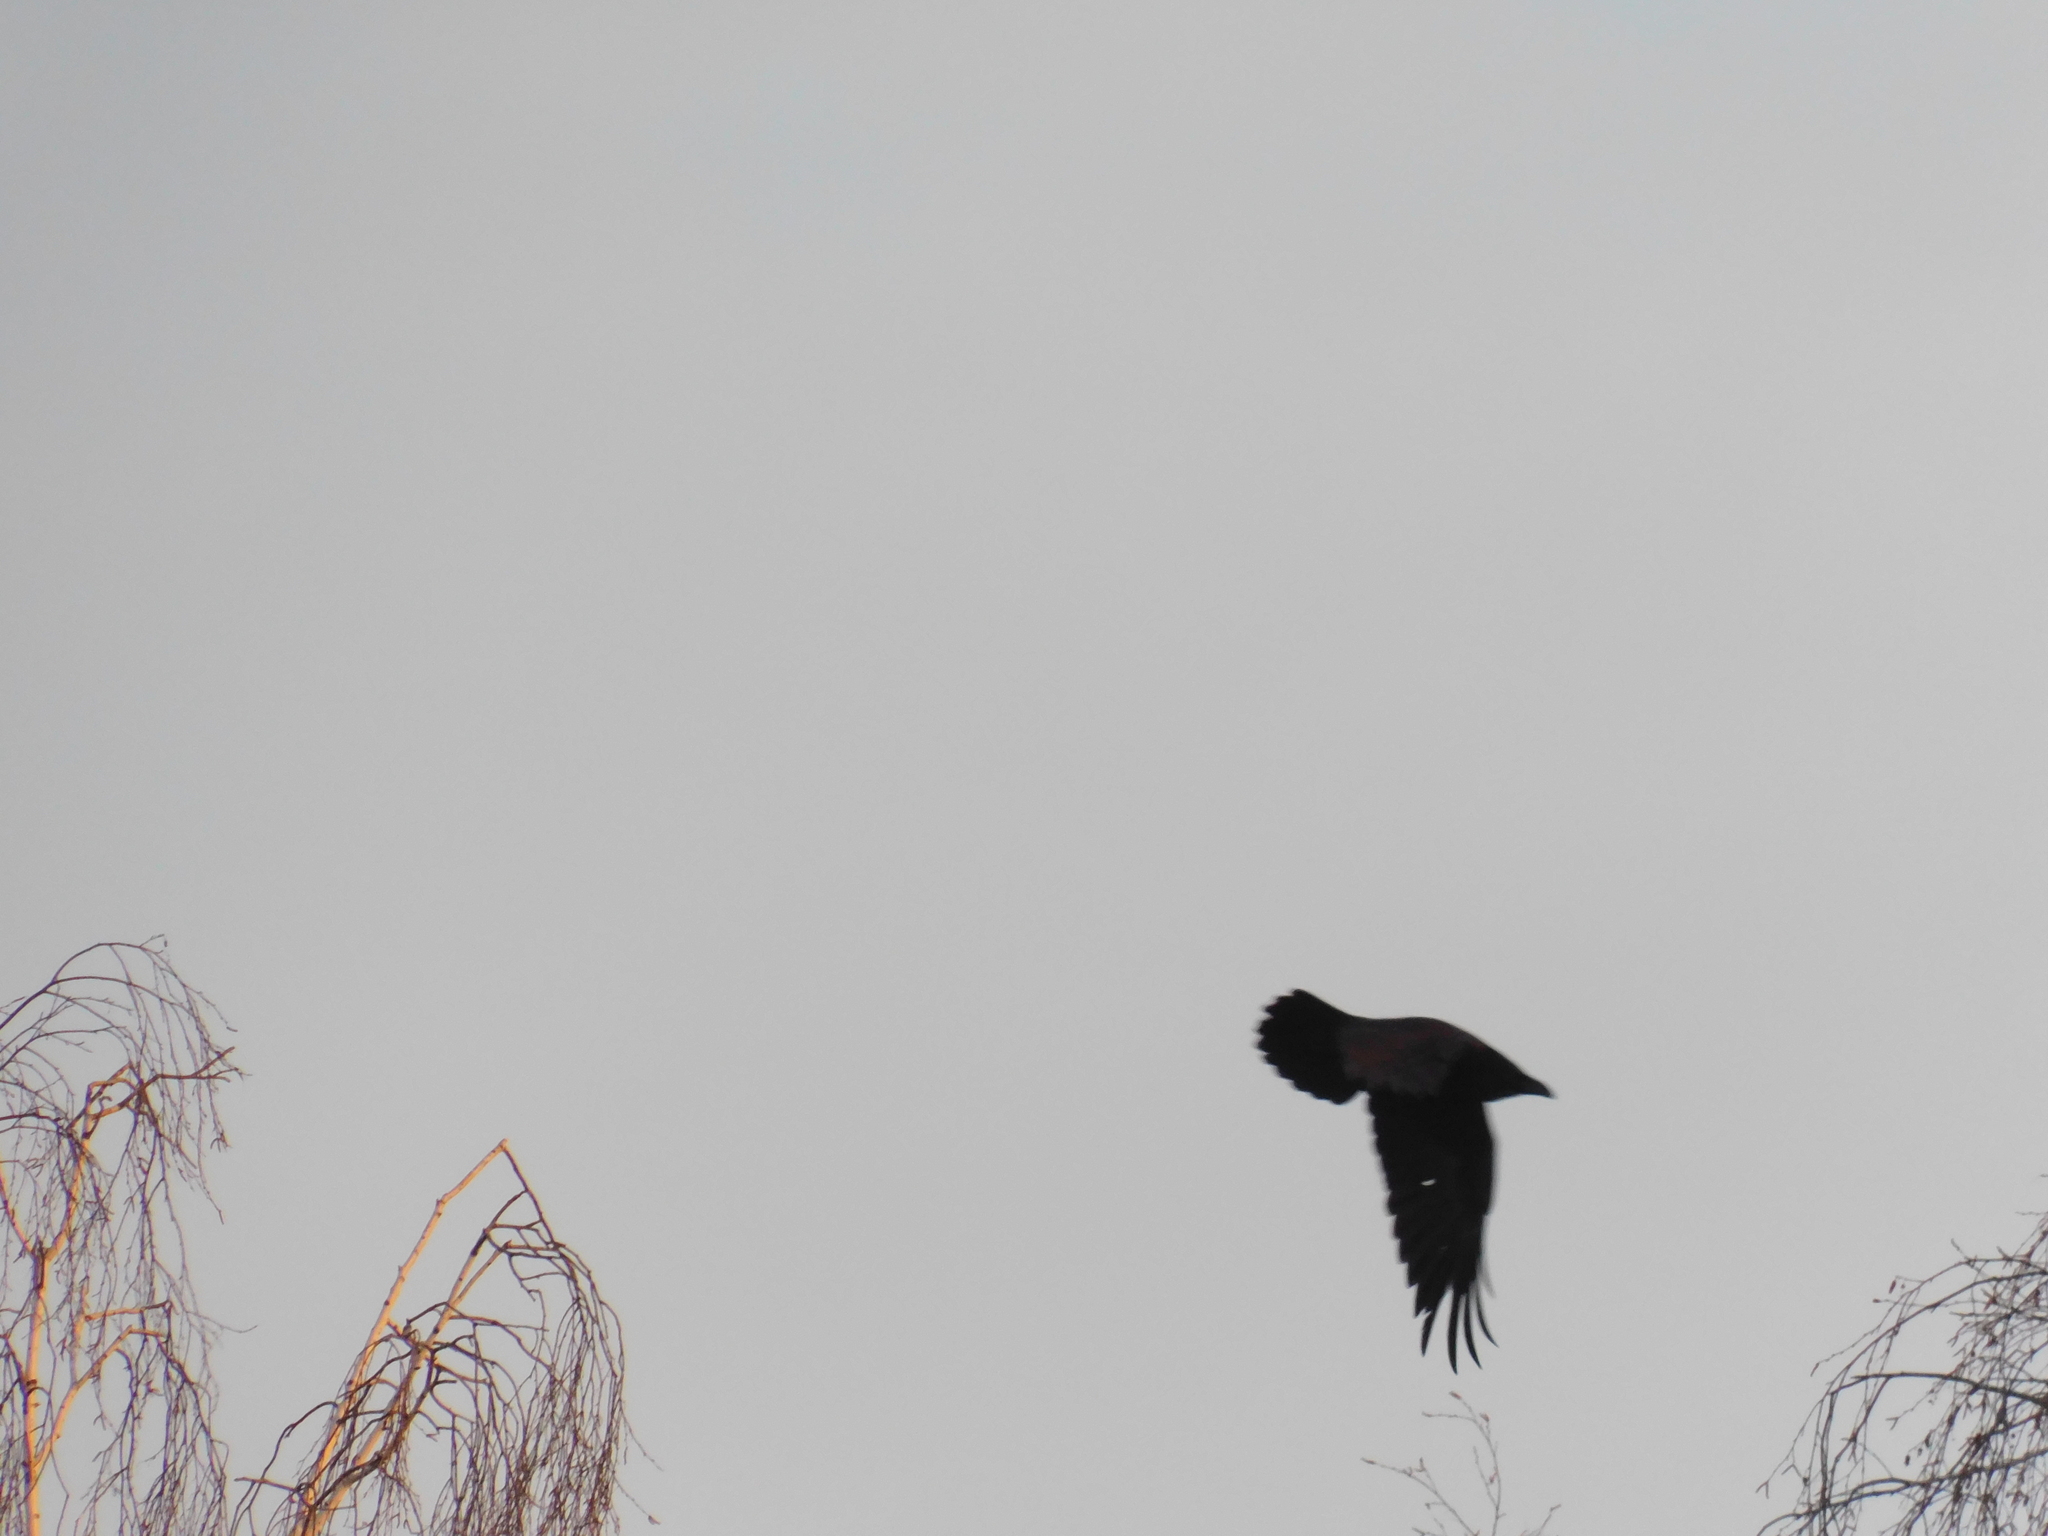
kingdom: Animalia
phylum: Chordata
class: Aves
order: Passeriformes
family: Corvidae
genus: Corvus
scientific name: Corvus cornix
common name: Hooded crow
